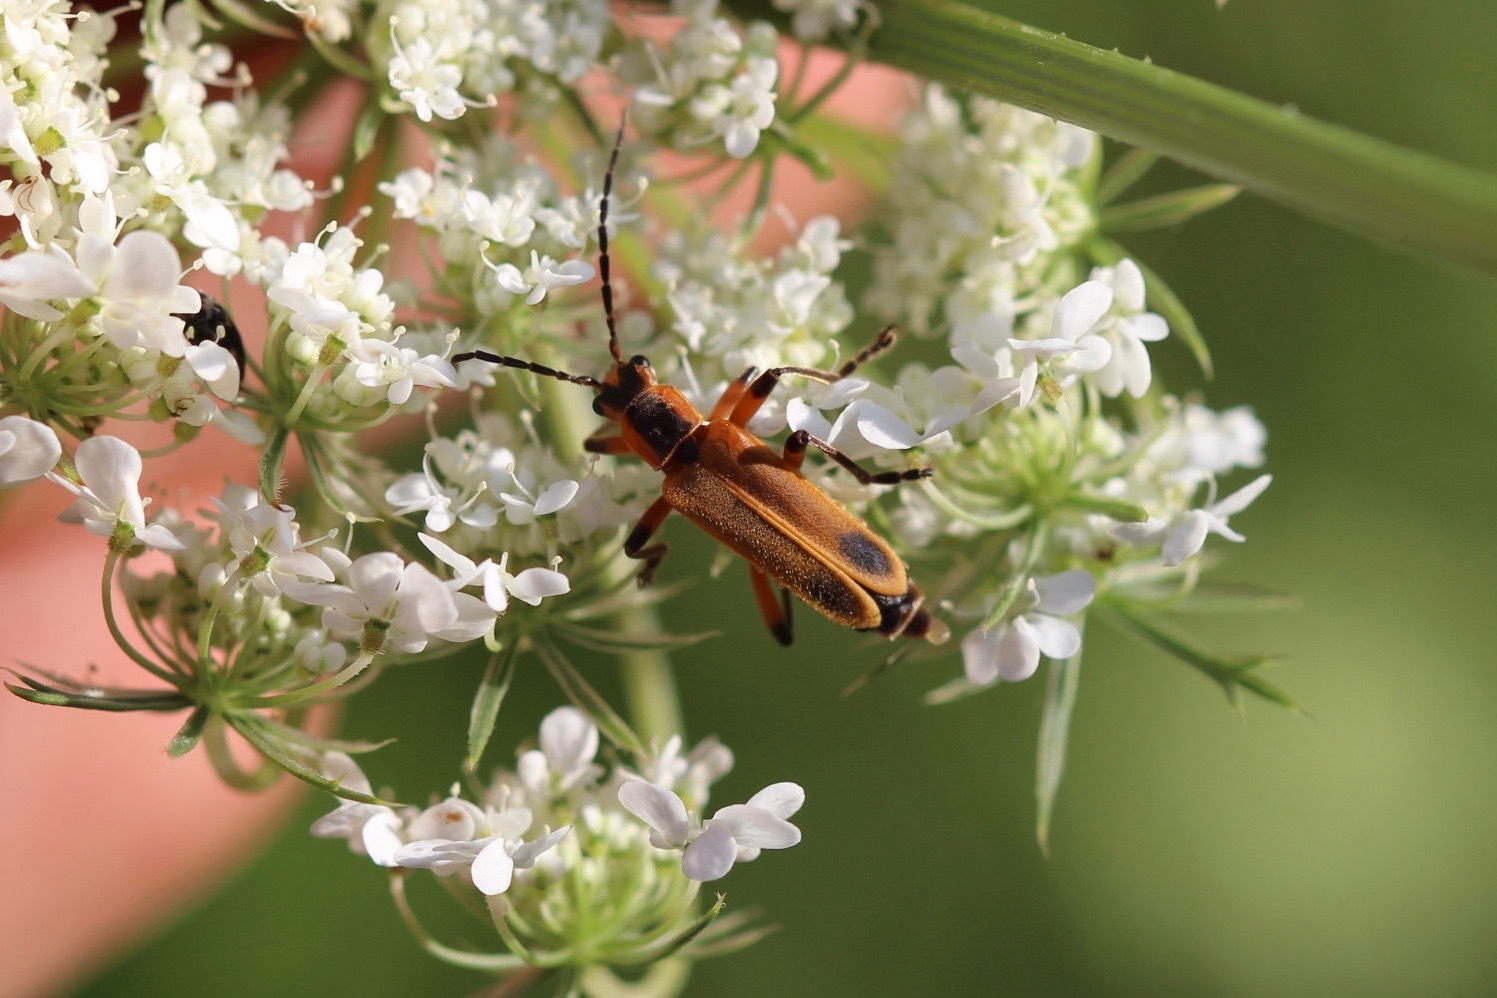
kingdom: Animalia
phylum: Arthropoda
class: Insecta
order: Coleoptera
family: Cantharidae
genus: Chauliognathus
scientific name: Chauliognathus marginatus
